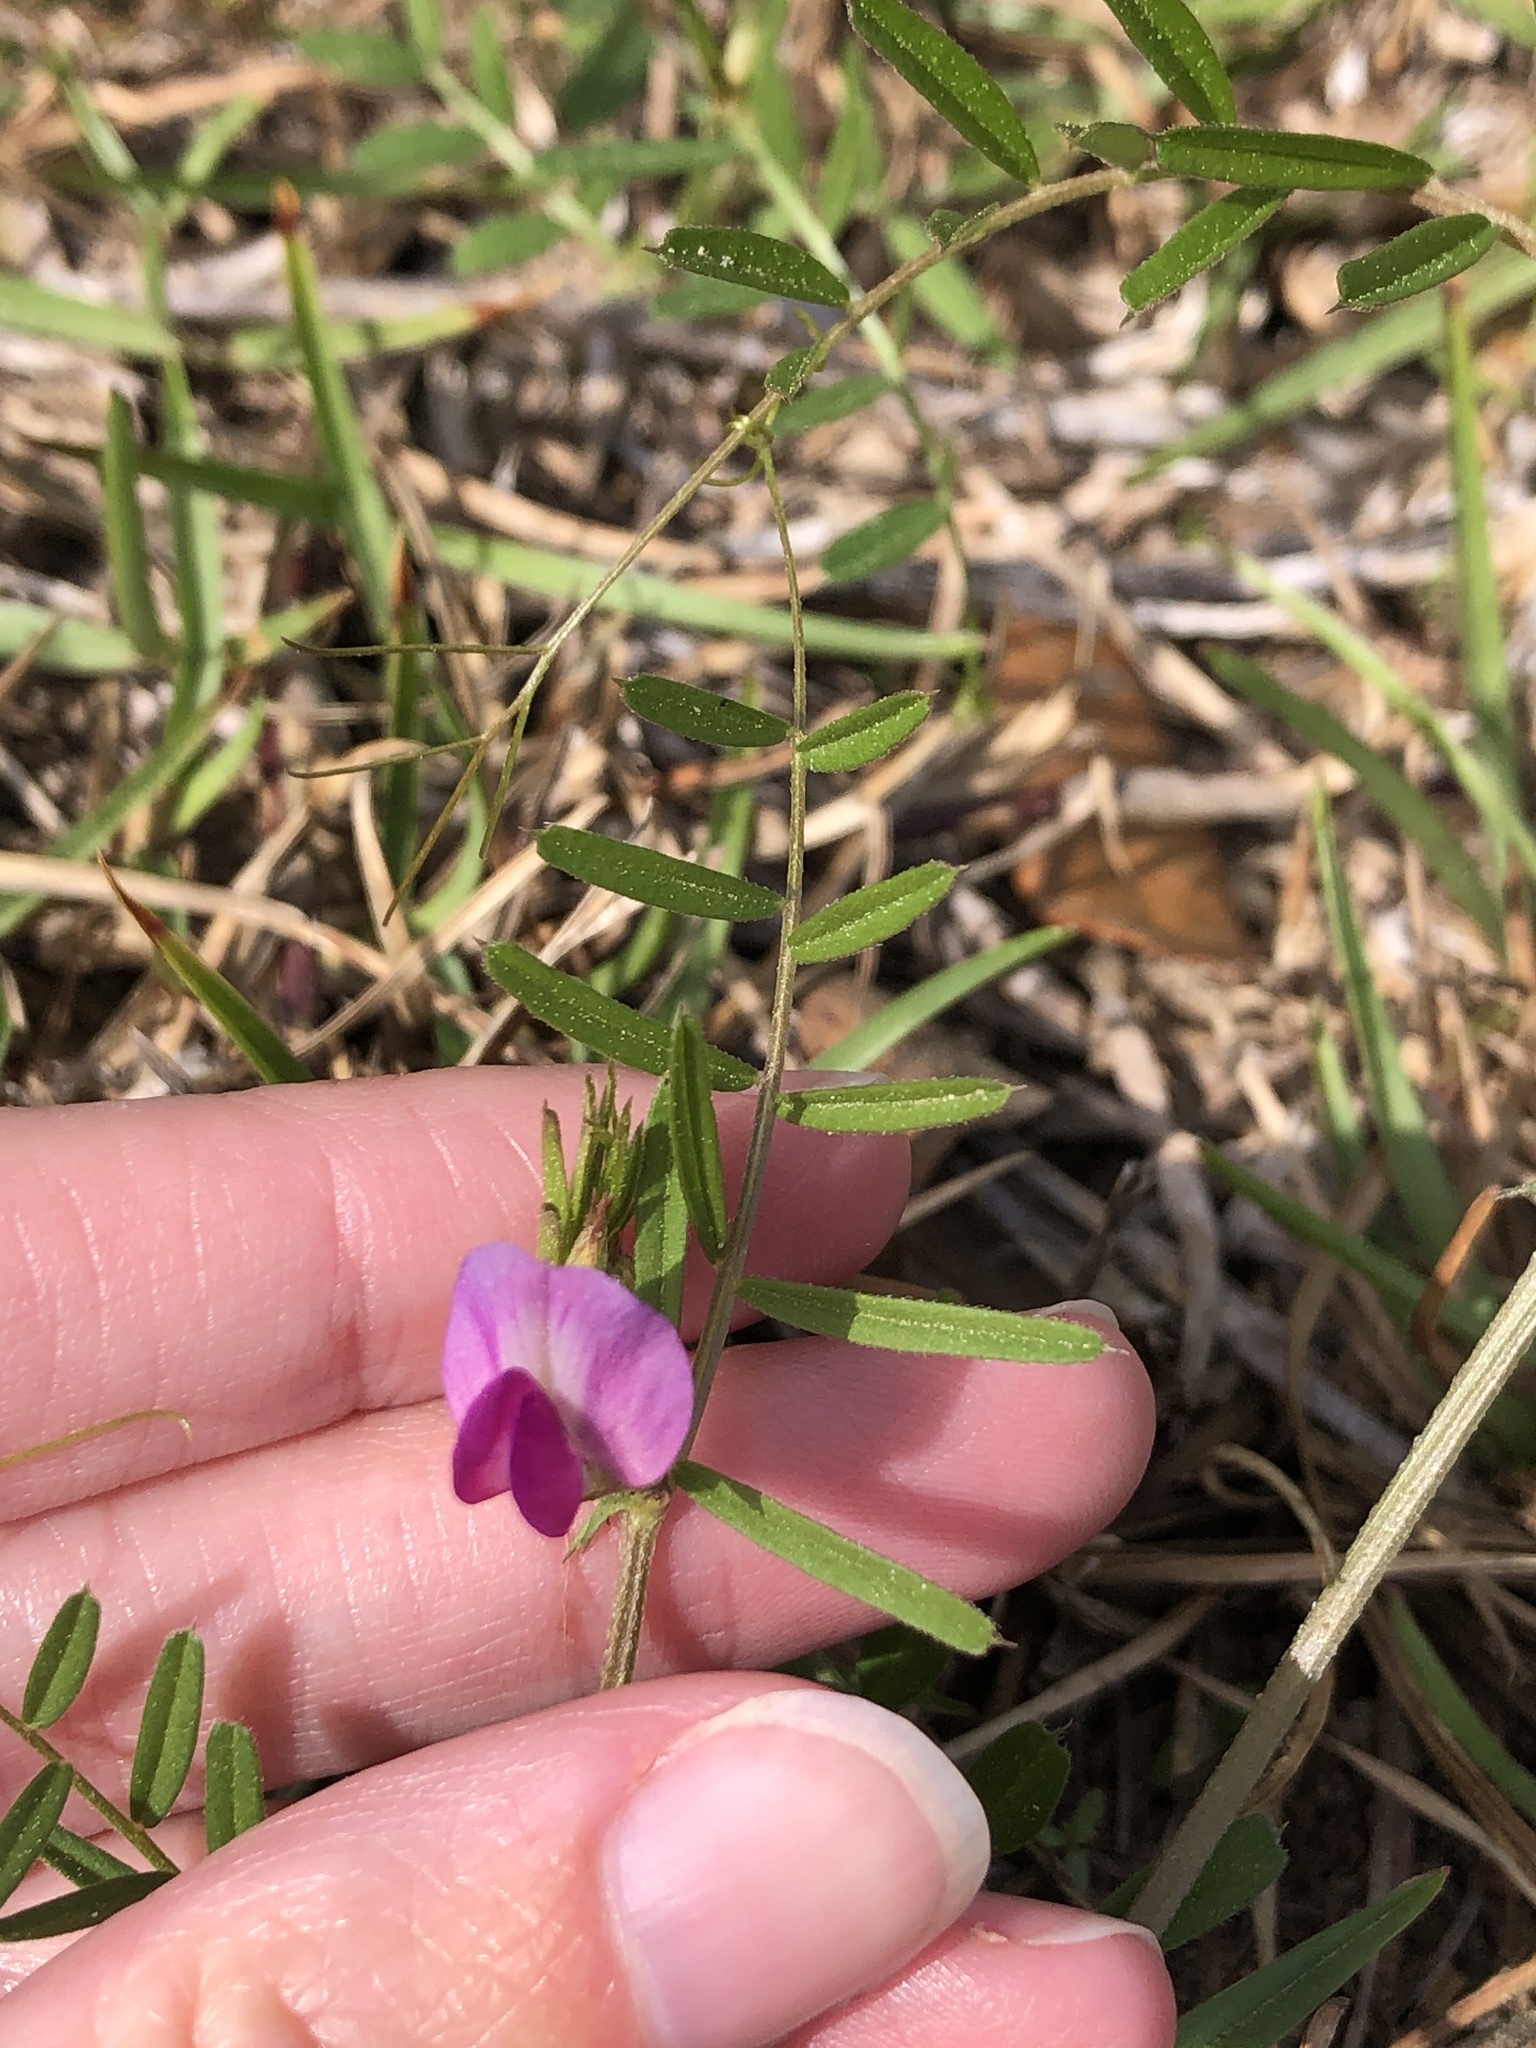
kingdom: Plantae
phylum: Tracheophyta
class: Magnoliopsida
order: Fabales
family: Fabaceae
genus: Vicia
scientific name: Vicia sativa
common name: Garden vetch
